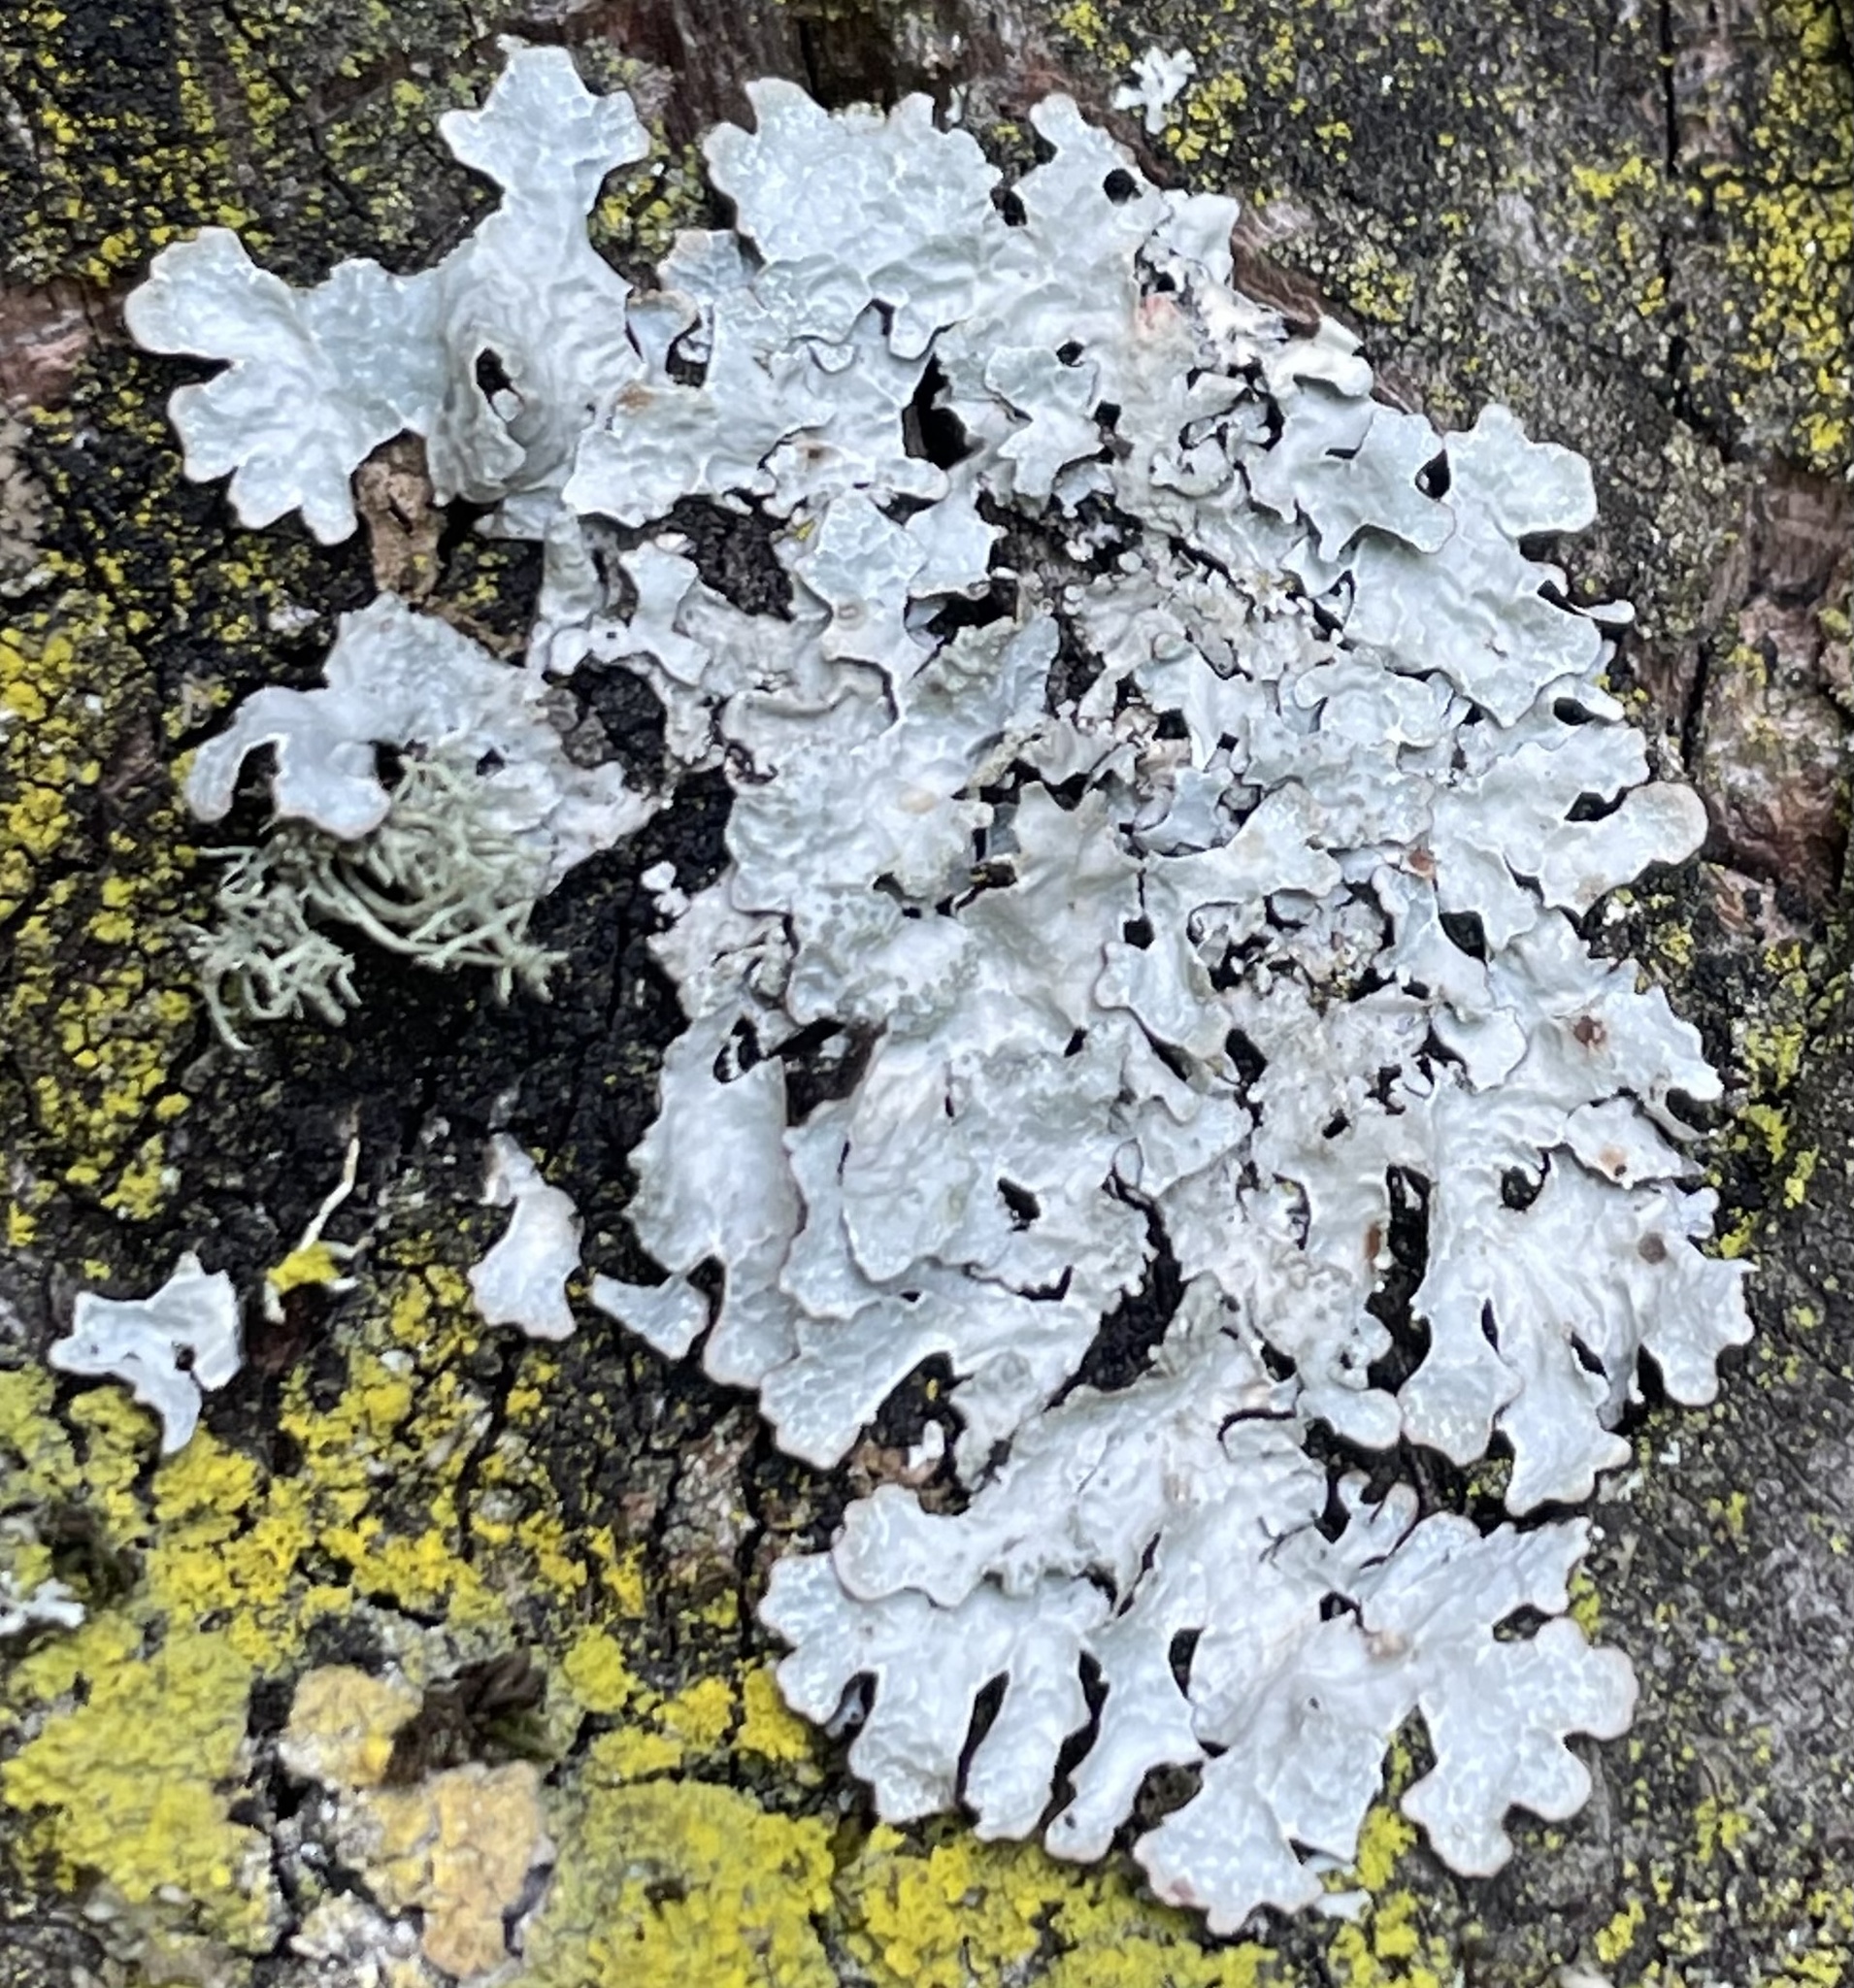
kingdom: Fungi
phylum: Ascomycota
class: Lecanoromycetes
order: Lecanorales
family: Parmeliaceae
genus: Parmelia
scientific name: Parmelia sulcata
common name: Netted shield lichen
